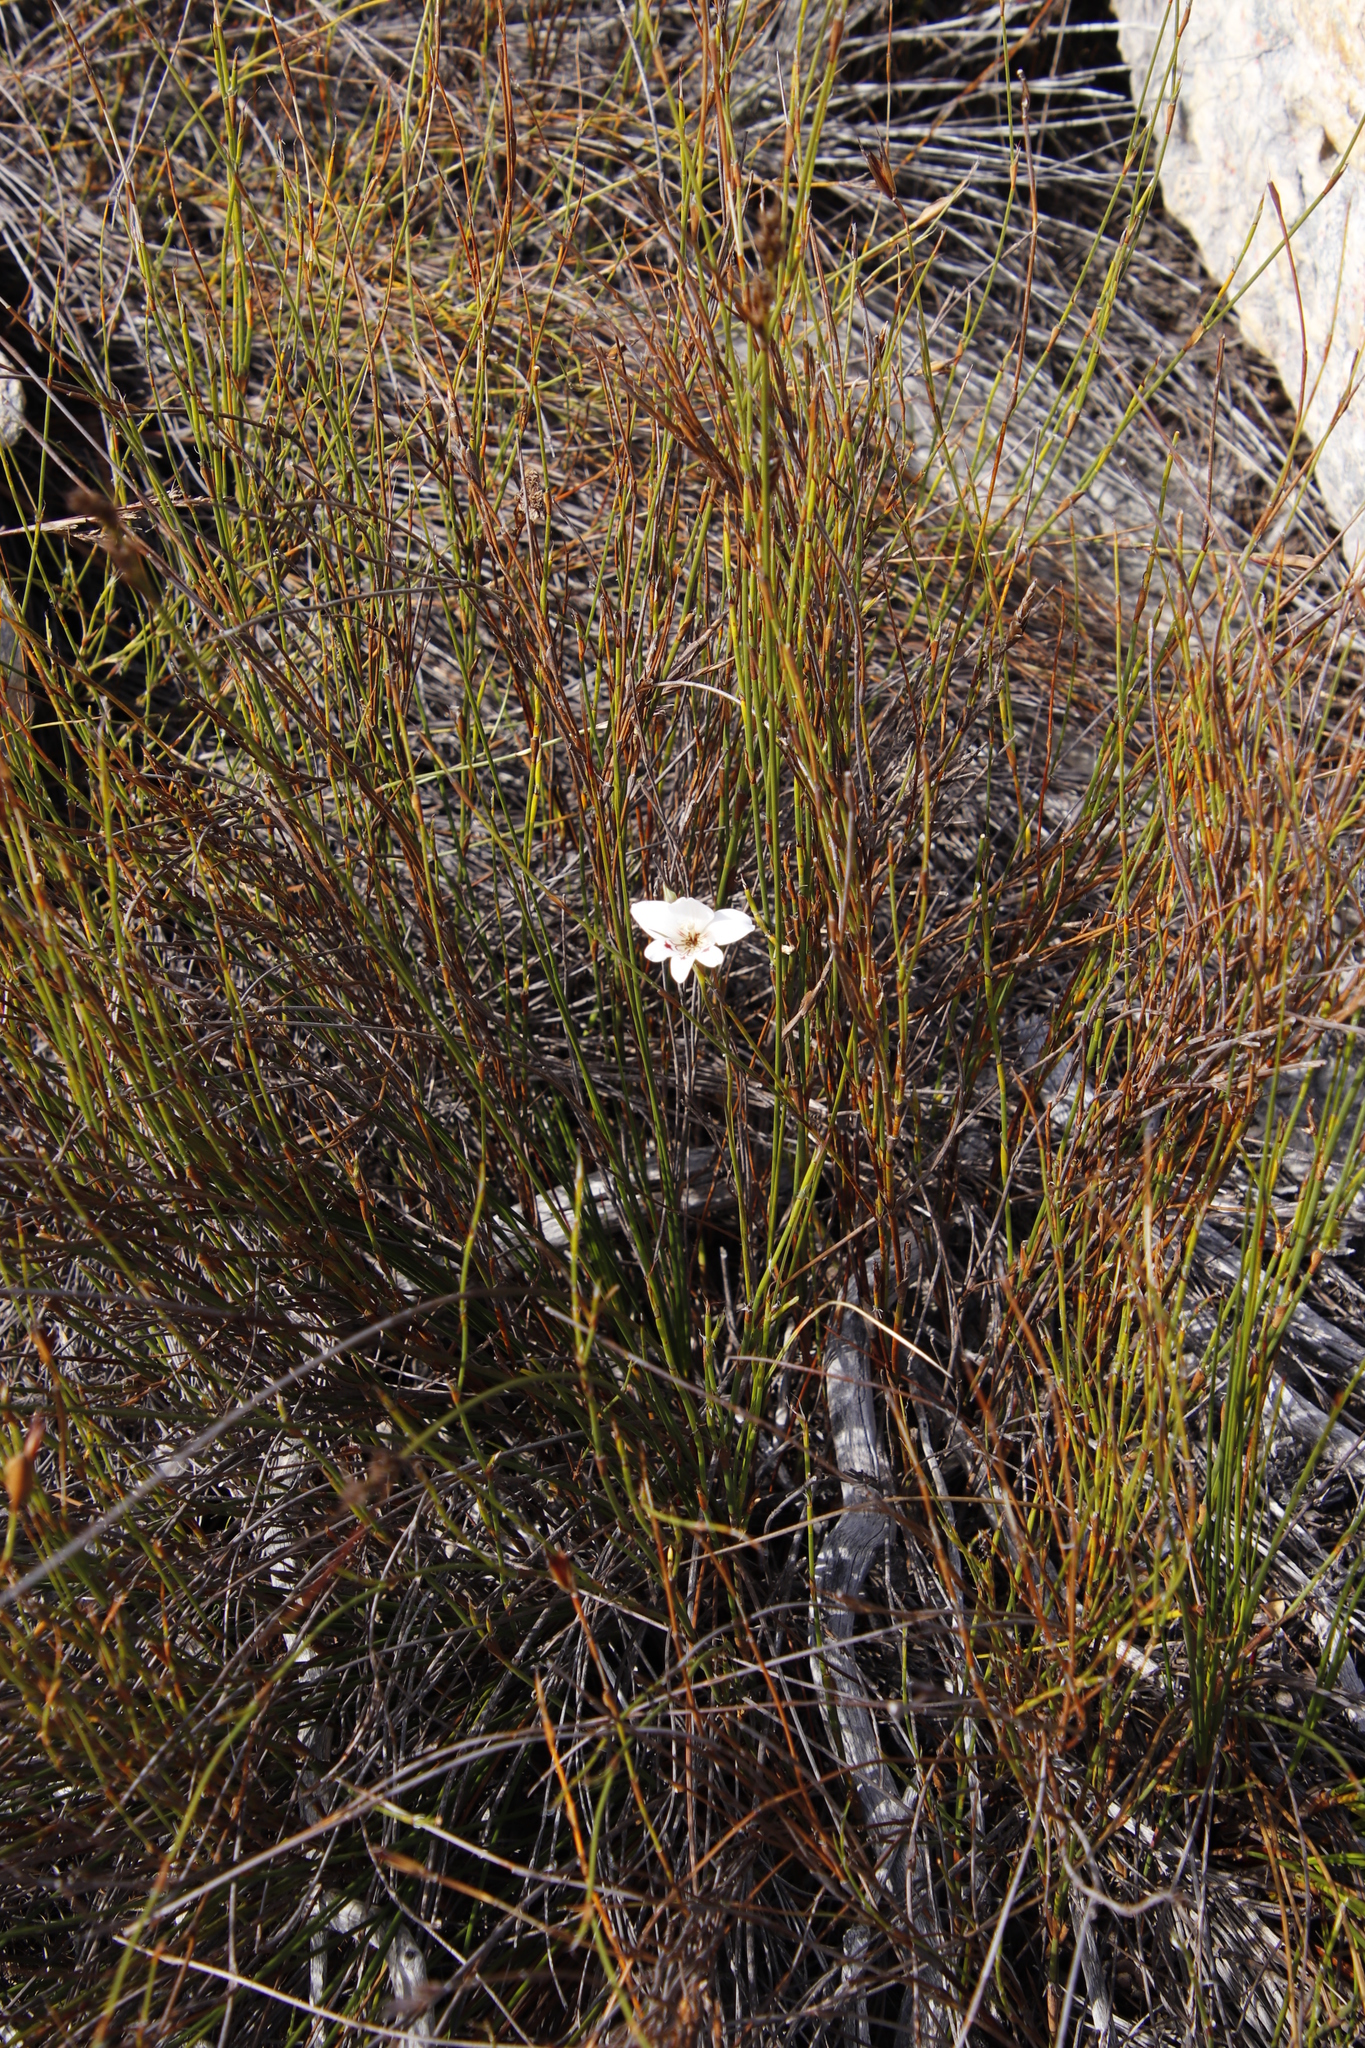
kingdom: Plantae
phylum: Tracheophyta
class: Liliopsida
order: Asparagales
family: Iridaceae
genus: Gladiolus
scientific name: Gladiolus debilis
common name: Painted-lady
